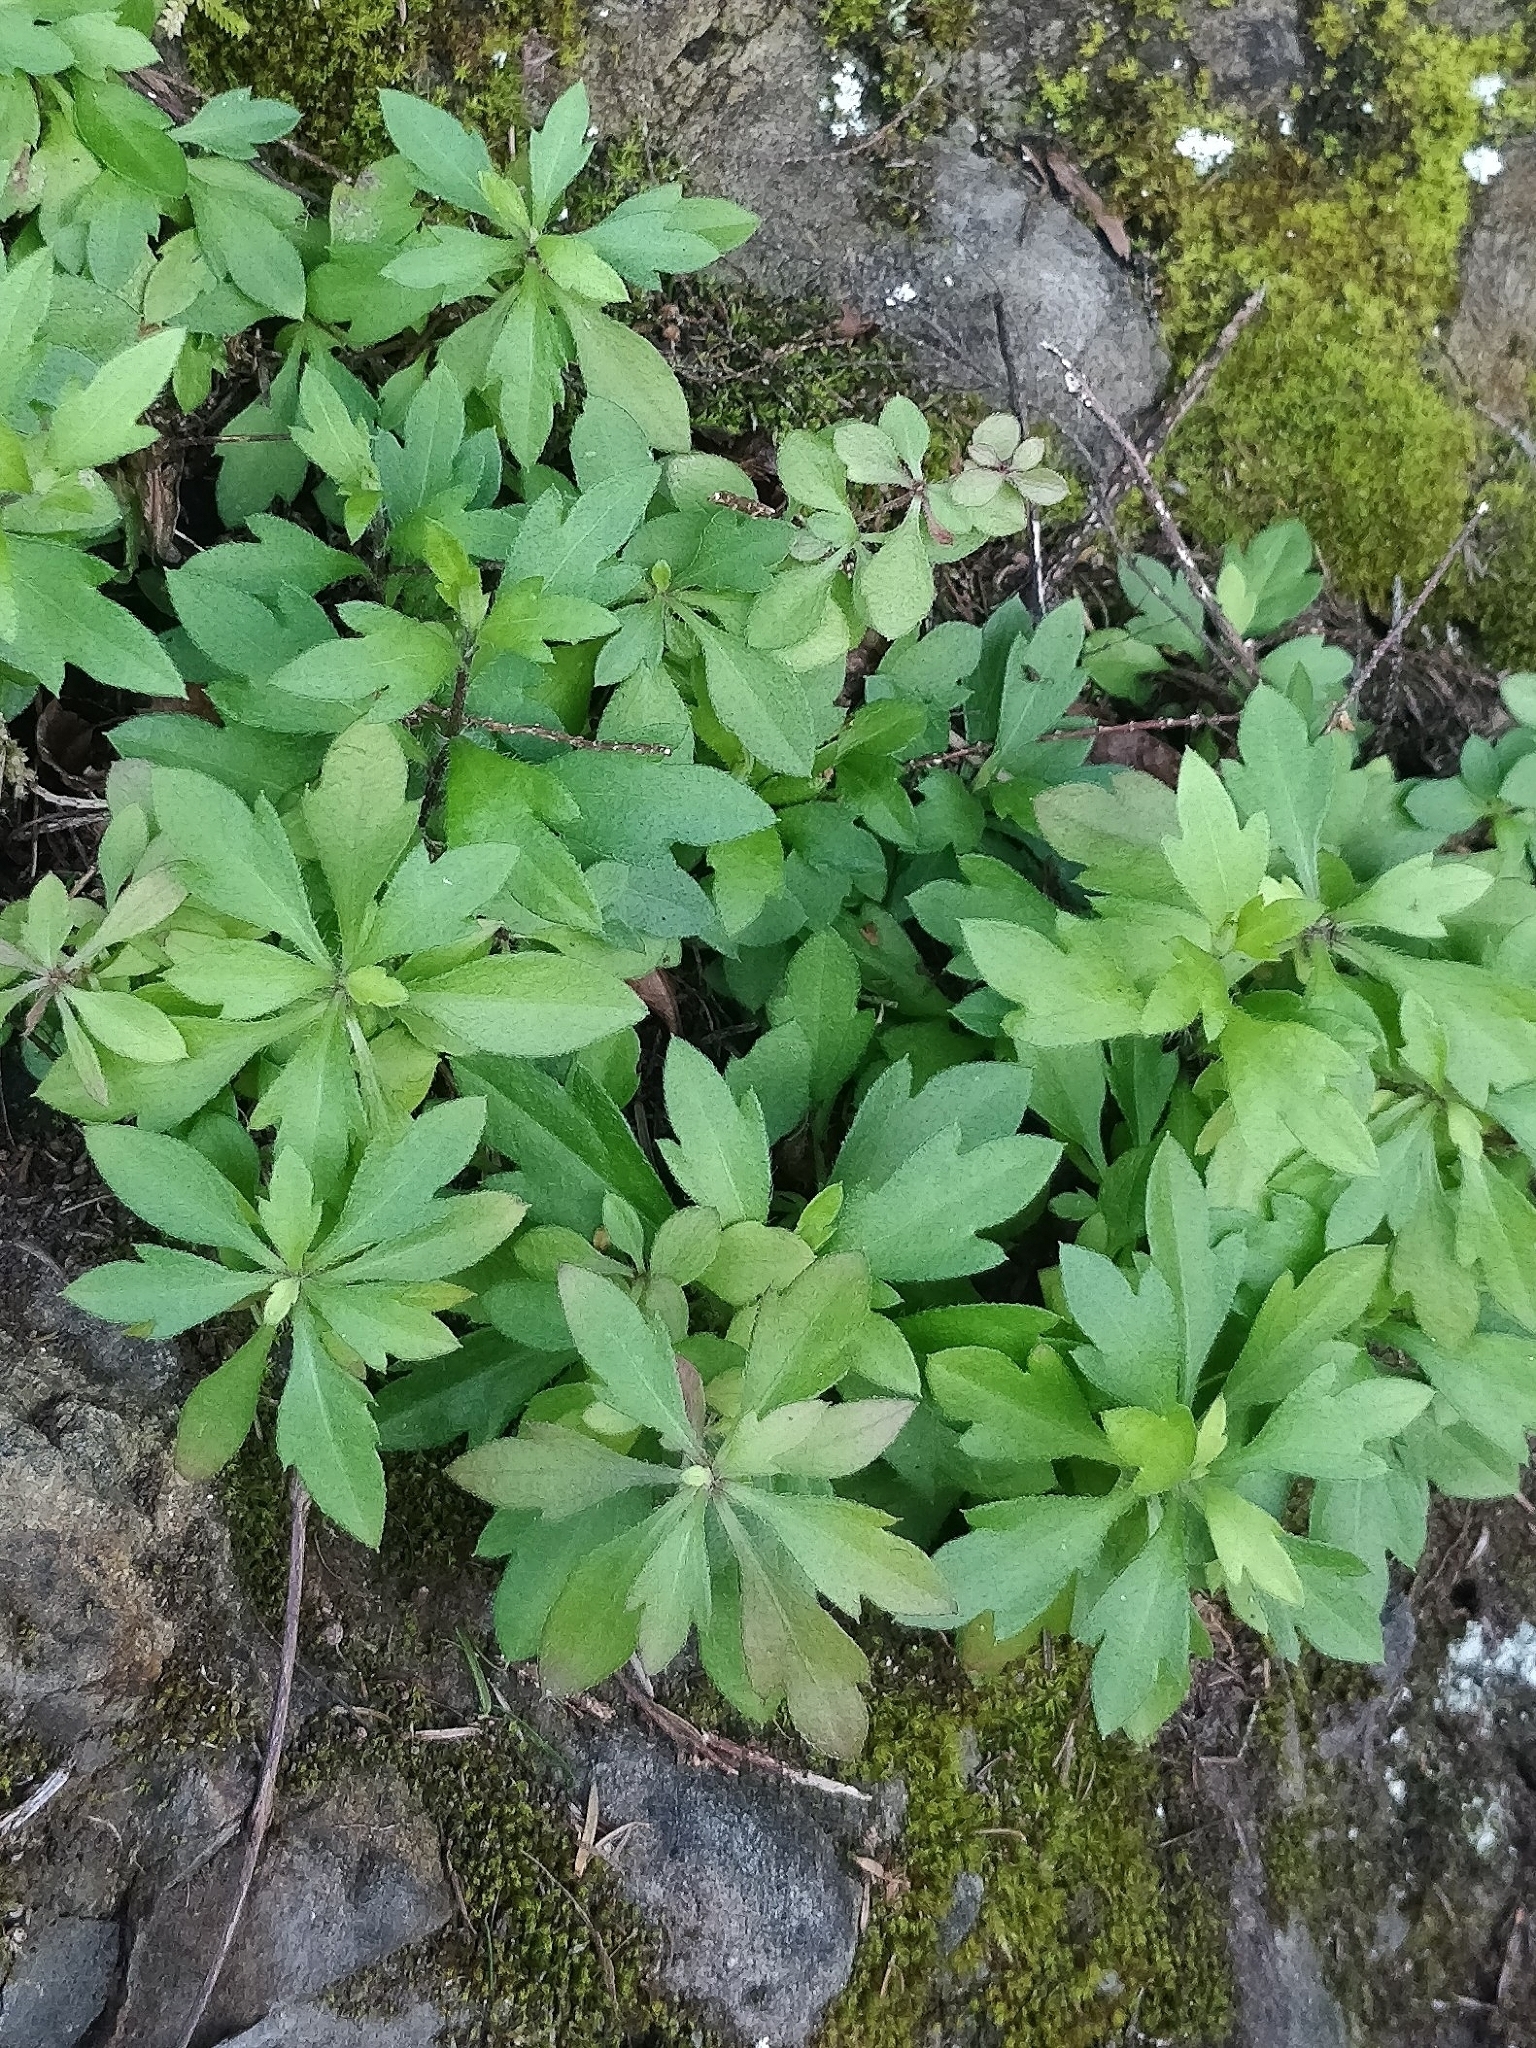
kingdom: Plantae
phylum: Tracheophyta
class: Magnoliopsida
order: Asterales
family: Asteraceae
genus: Erigeron
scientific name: Erigeron karvinskianus
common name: Mexican fleabane
